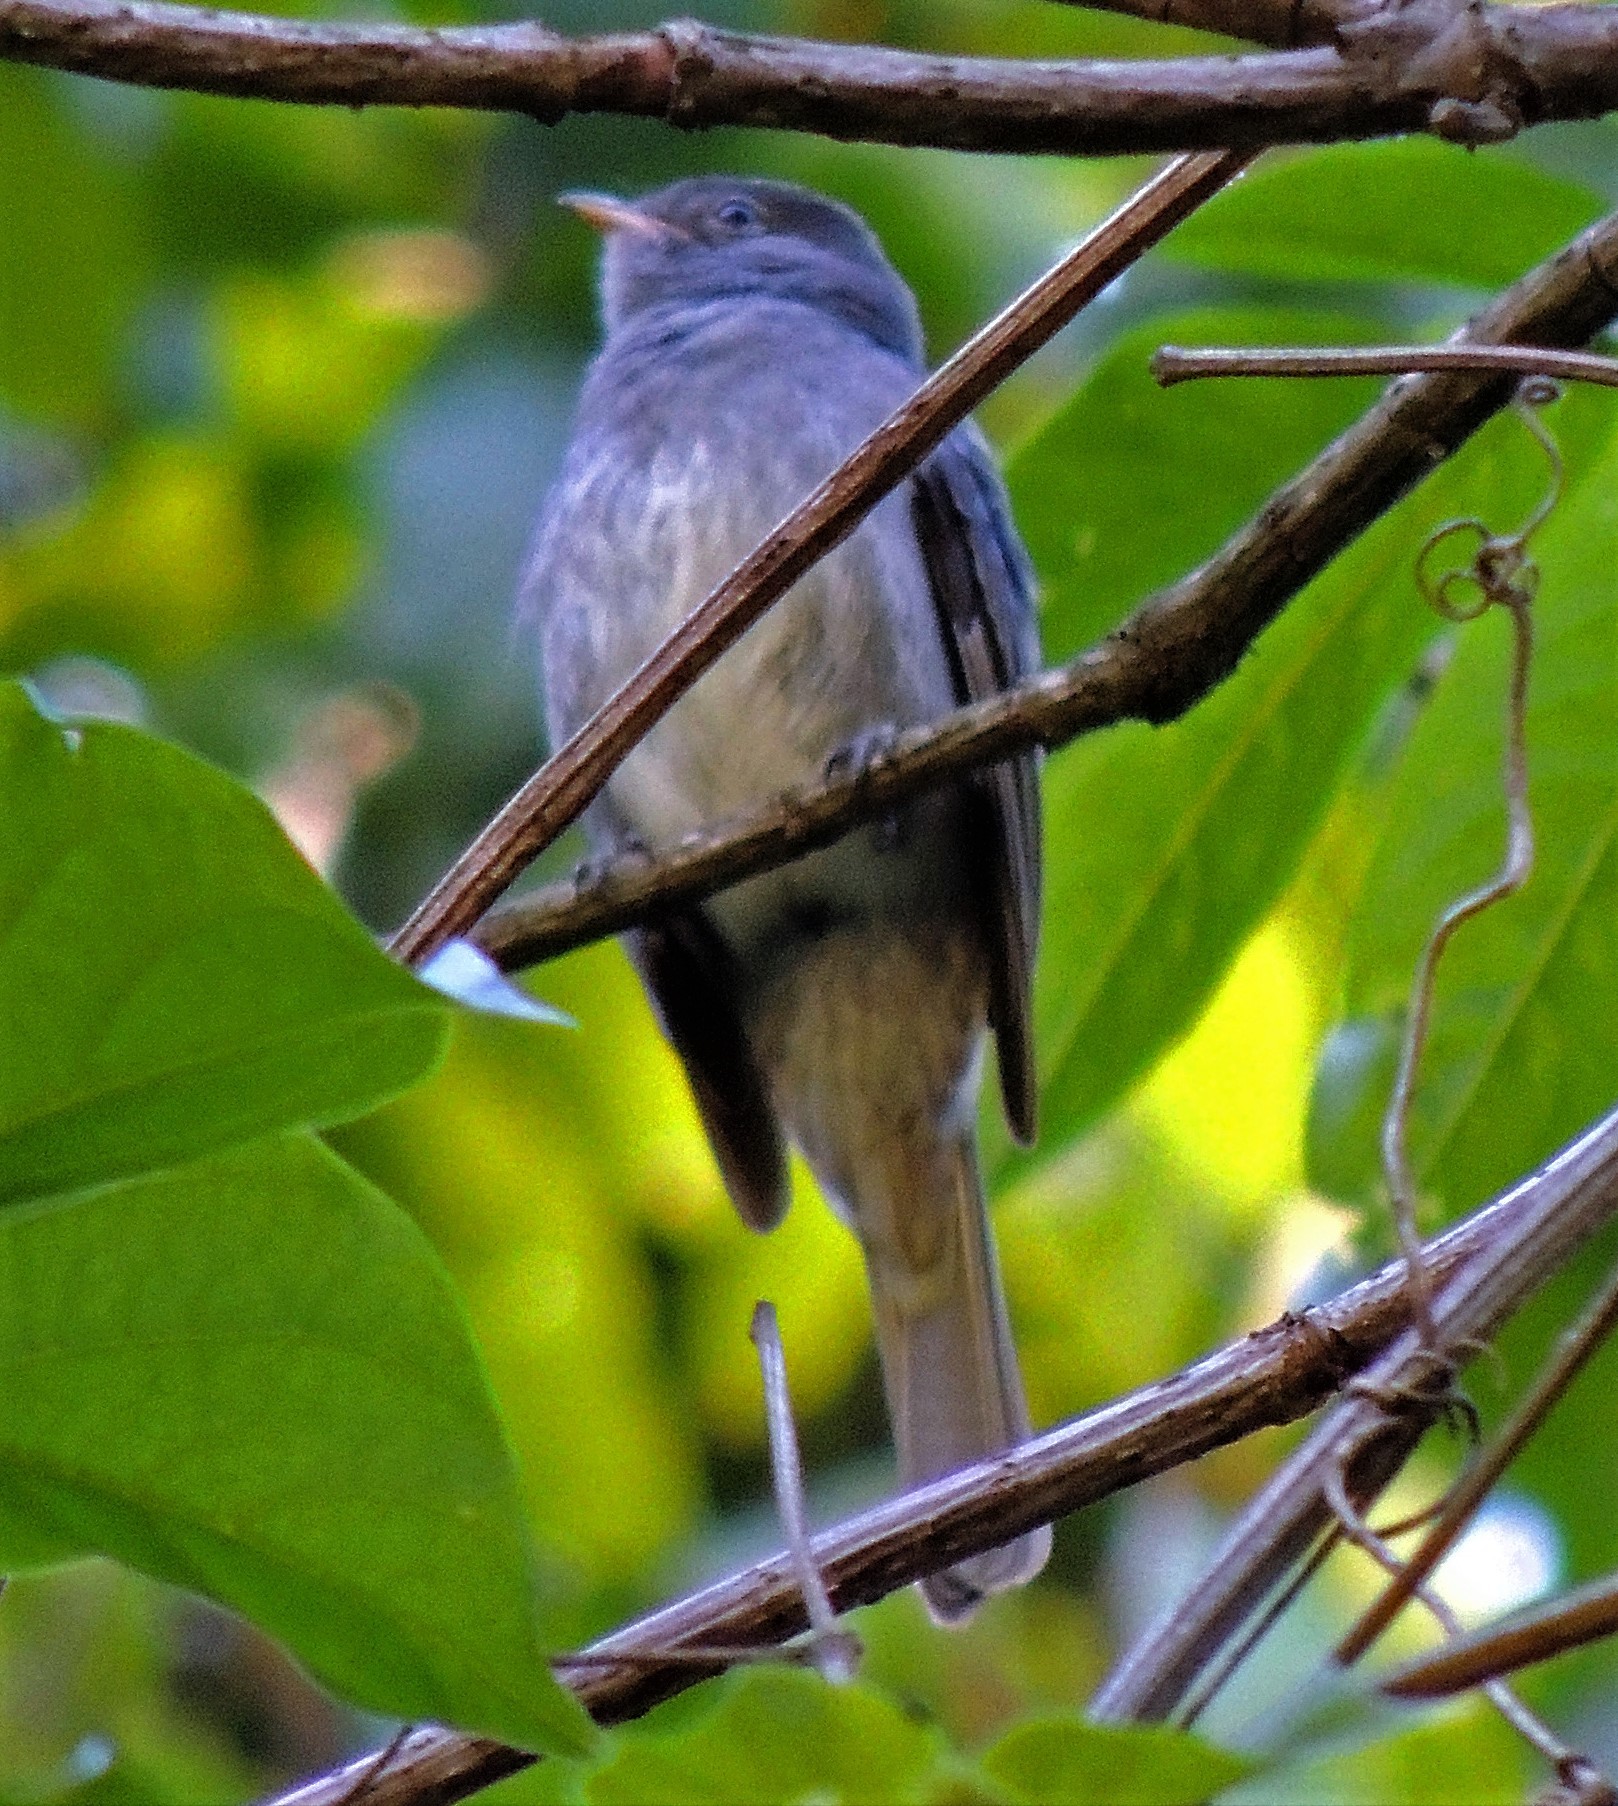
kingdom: Animalia
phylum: Chordata
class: Aves
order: Passeriformes
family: Tyrannidae
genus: Elaenia
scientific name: Elaenia strepera
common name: Slaty elaenia
